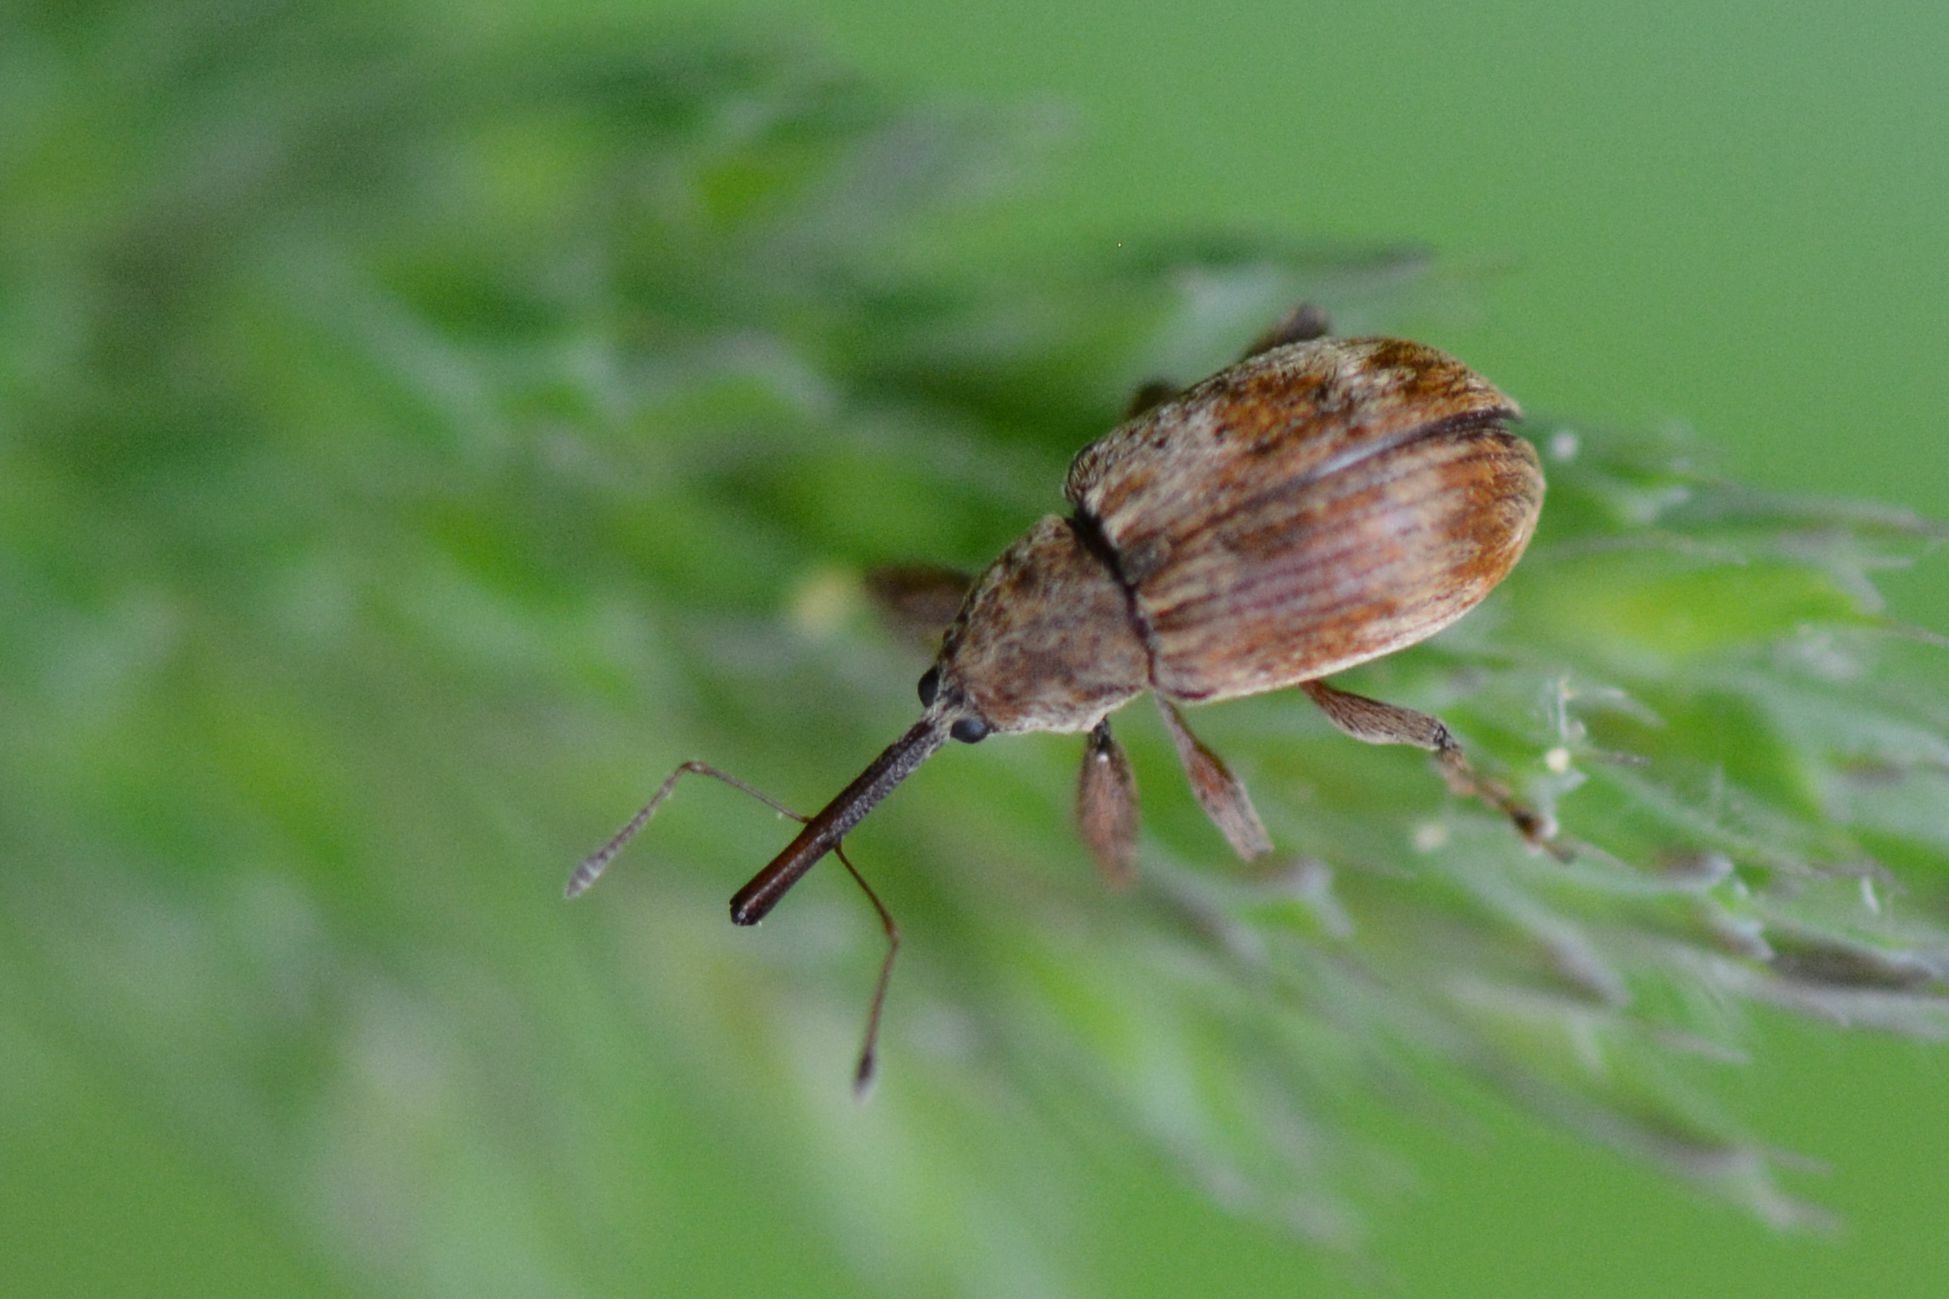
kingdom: Animalia
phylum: Arthropoda
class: Insecta
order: Coleoptera
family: Curculionidae
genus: Anthonomus
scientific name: Anthonomus rectirostris
